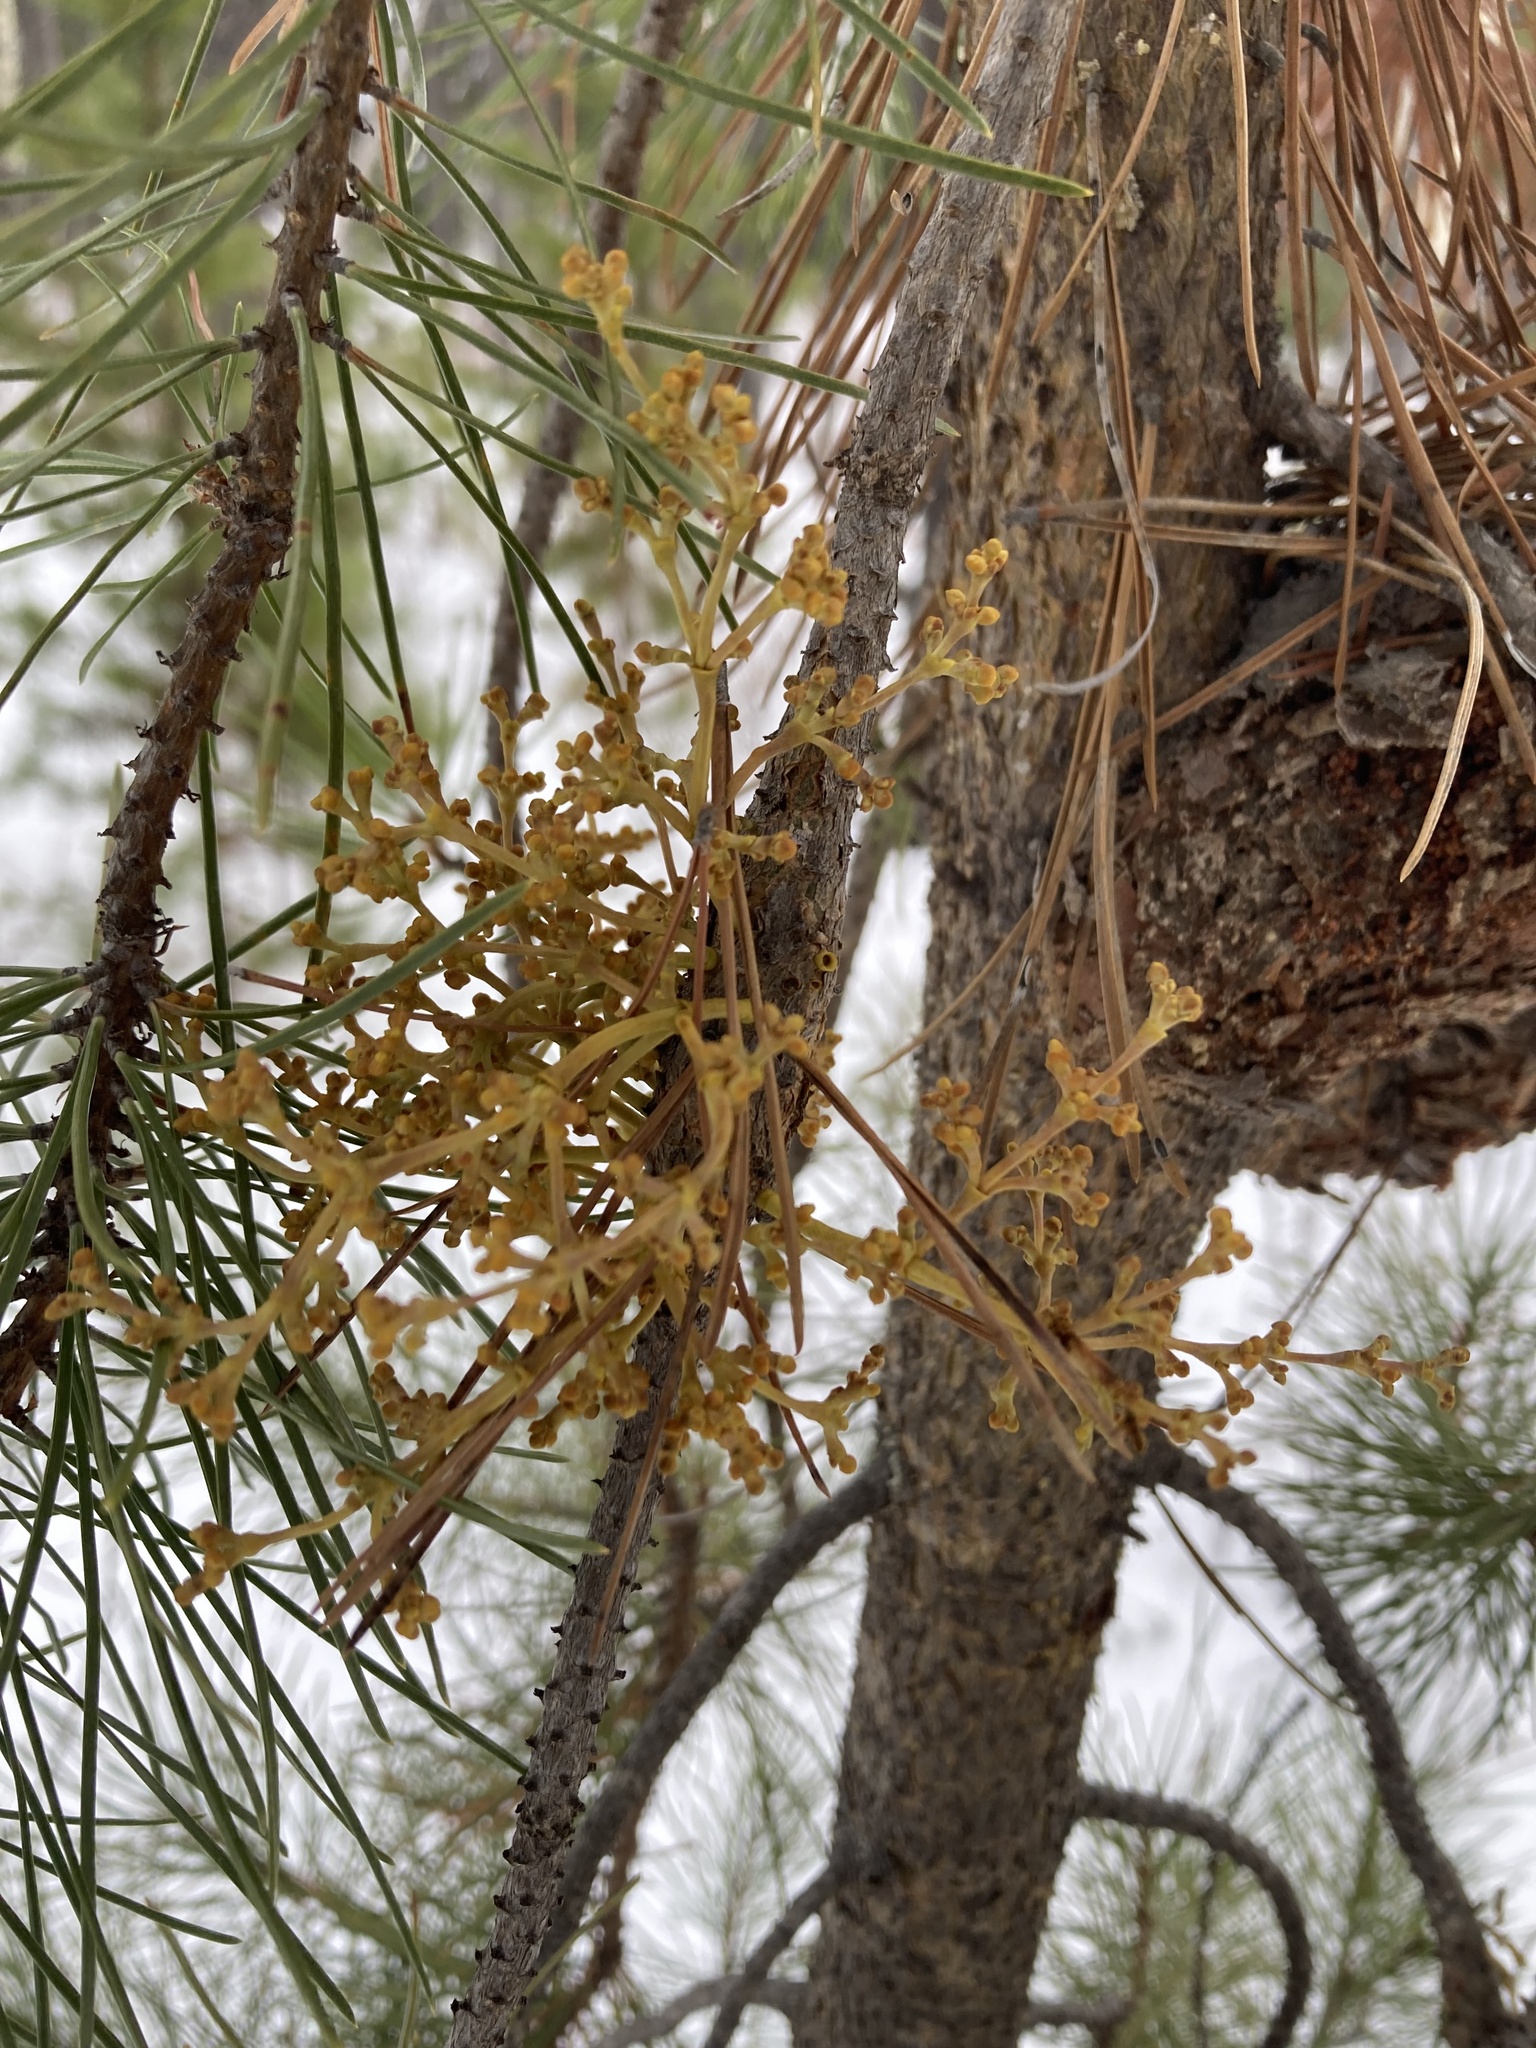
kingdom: Plantae
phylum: Tracheophyta
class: Magnoliopsida
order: Santalales
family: Viscaceae
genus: Arceuthobium
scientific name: Arceuthobium americanum
